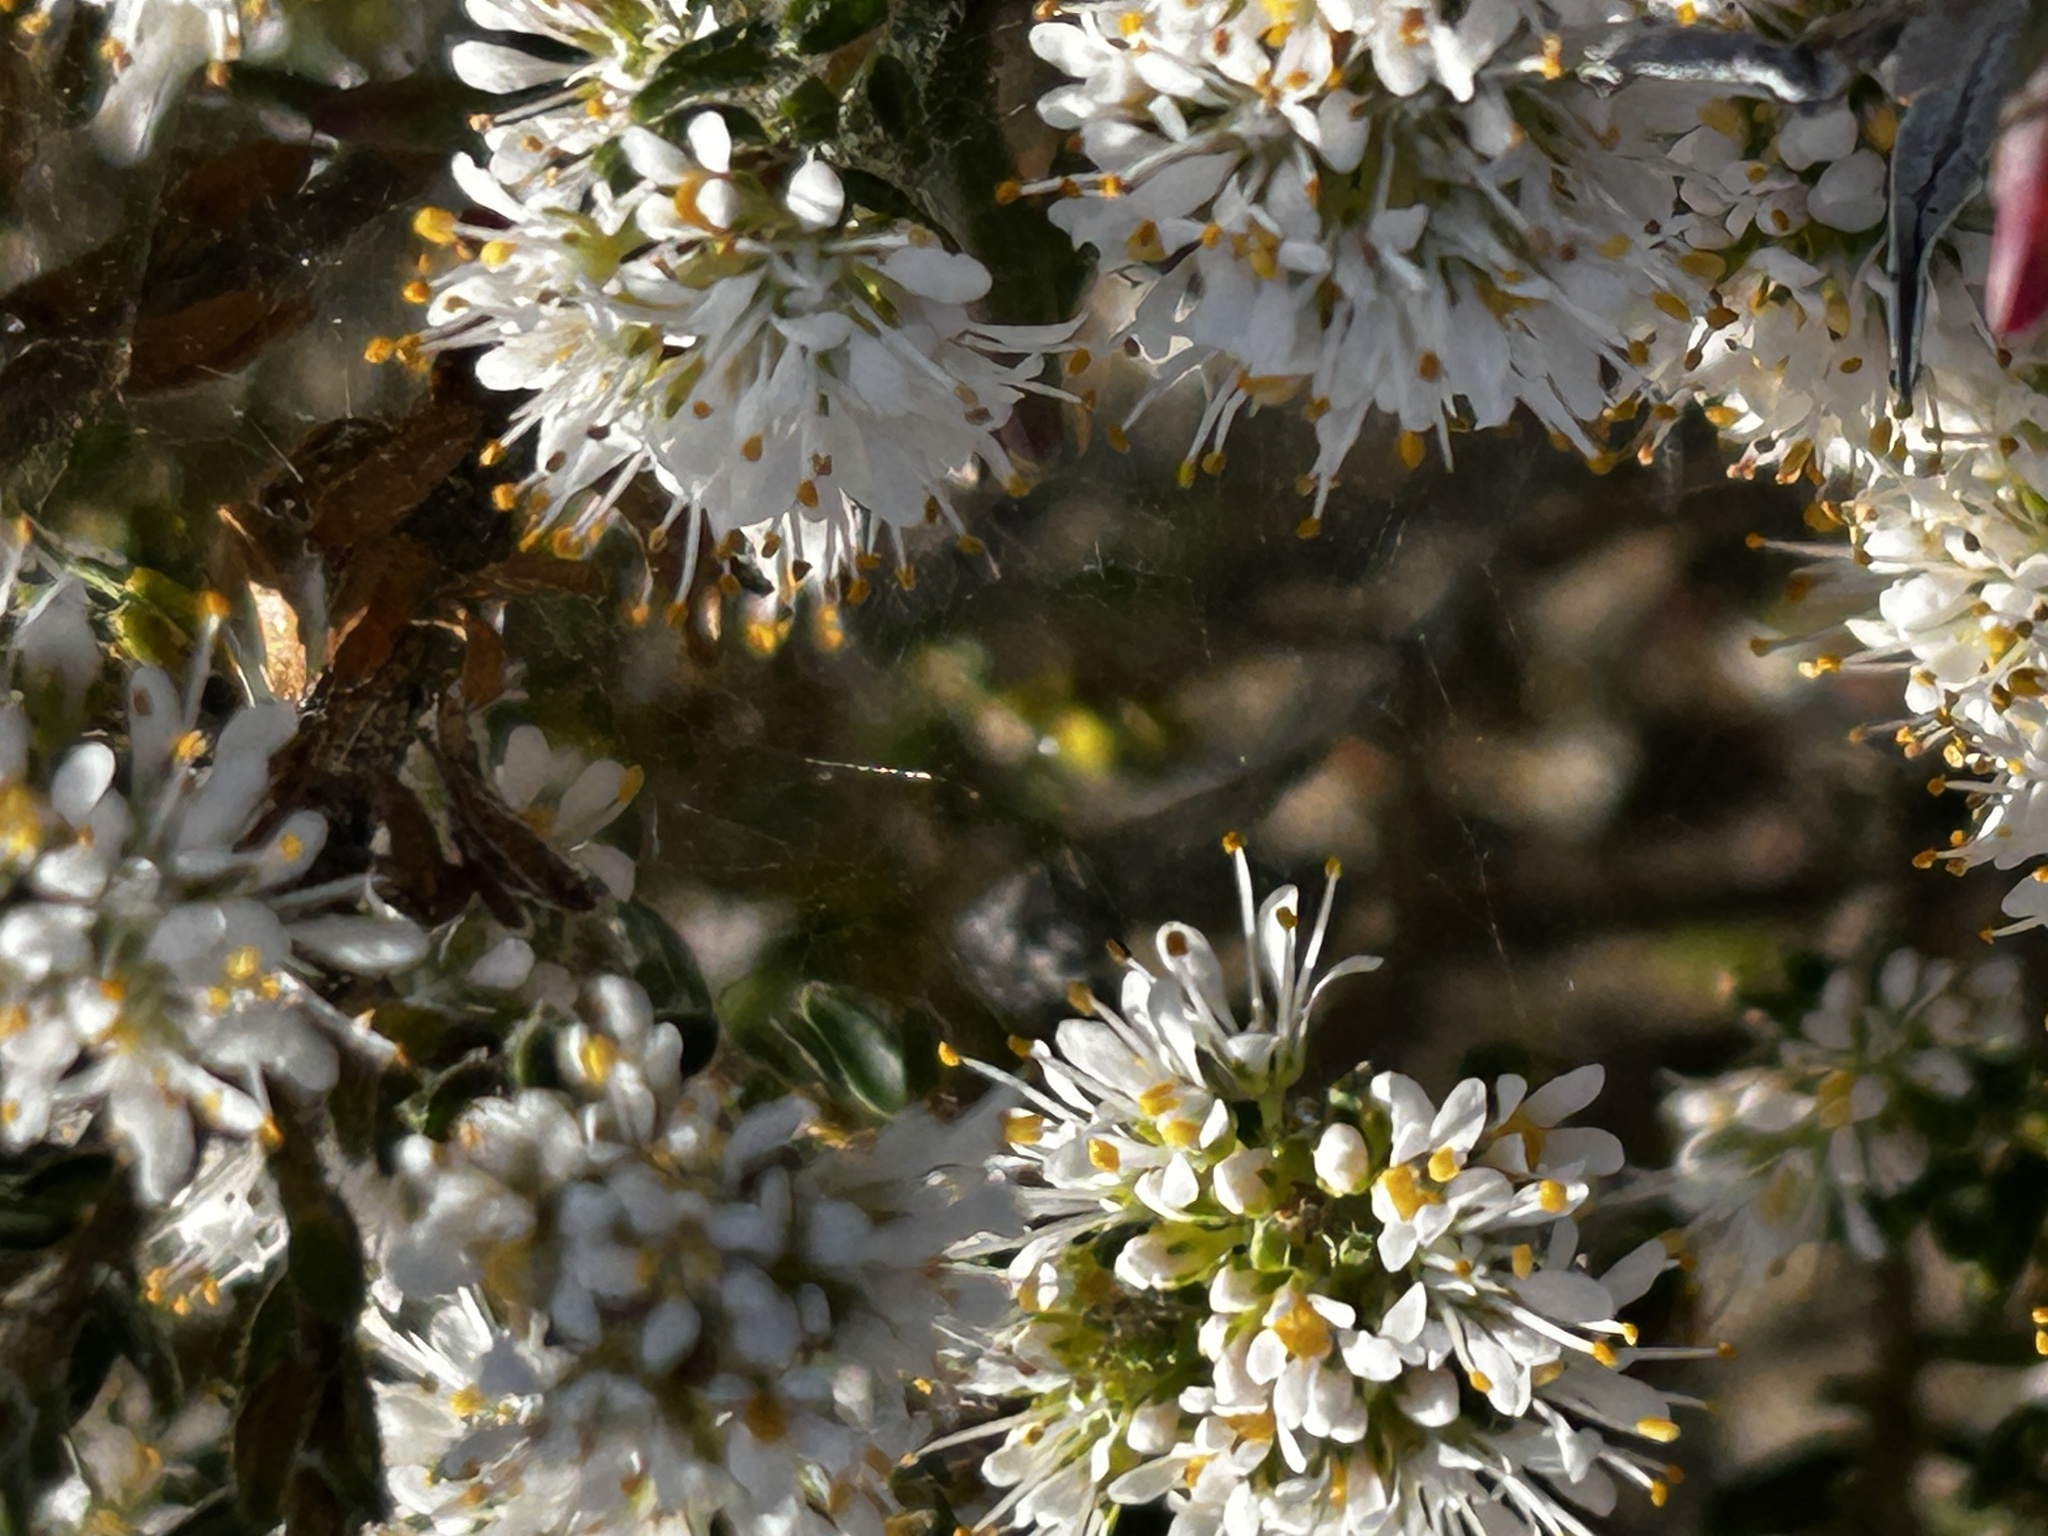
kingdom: Plantae
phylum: Tracheophyta
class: Magnoliopsida
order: Sapindales
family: Rutaceae
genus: Agathosma
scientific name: Agathosma serpyllacea
